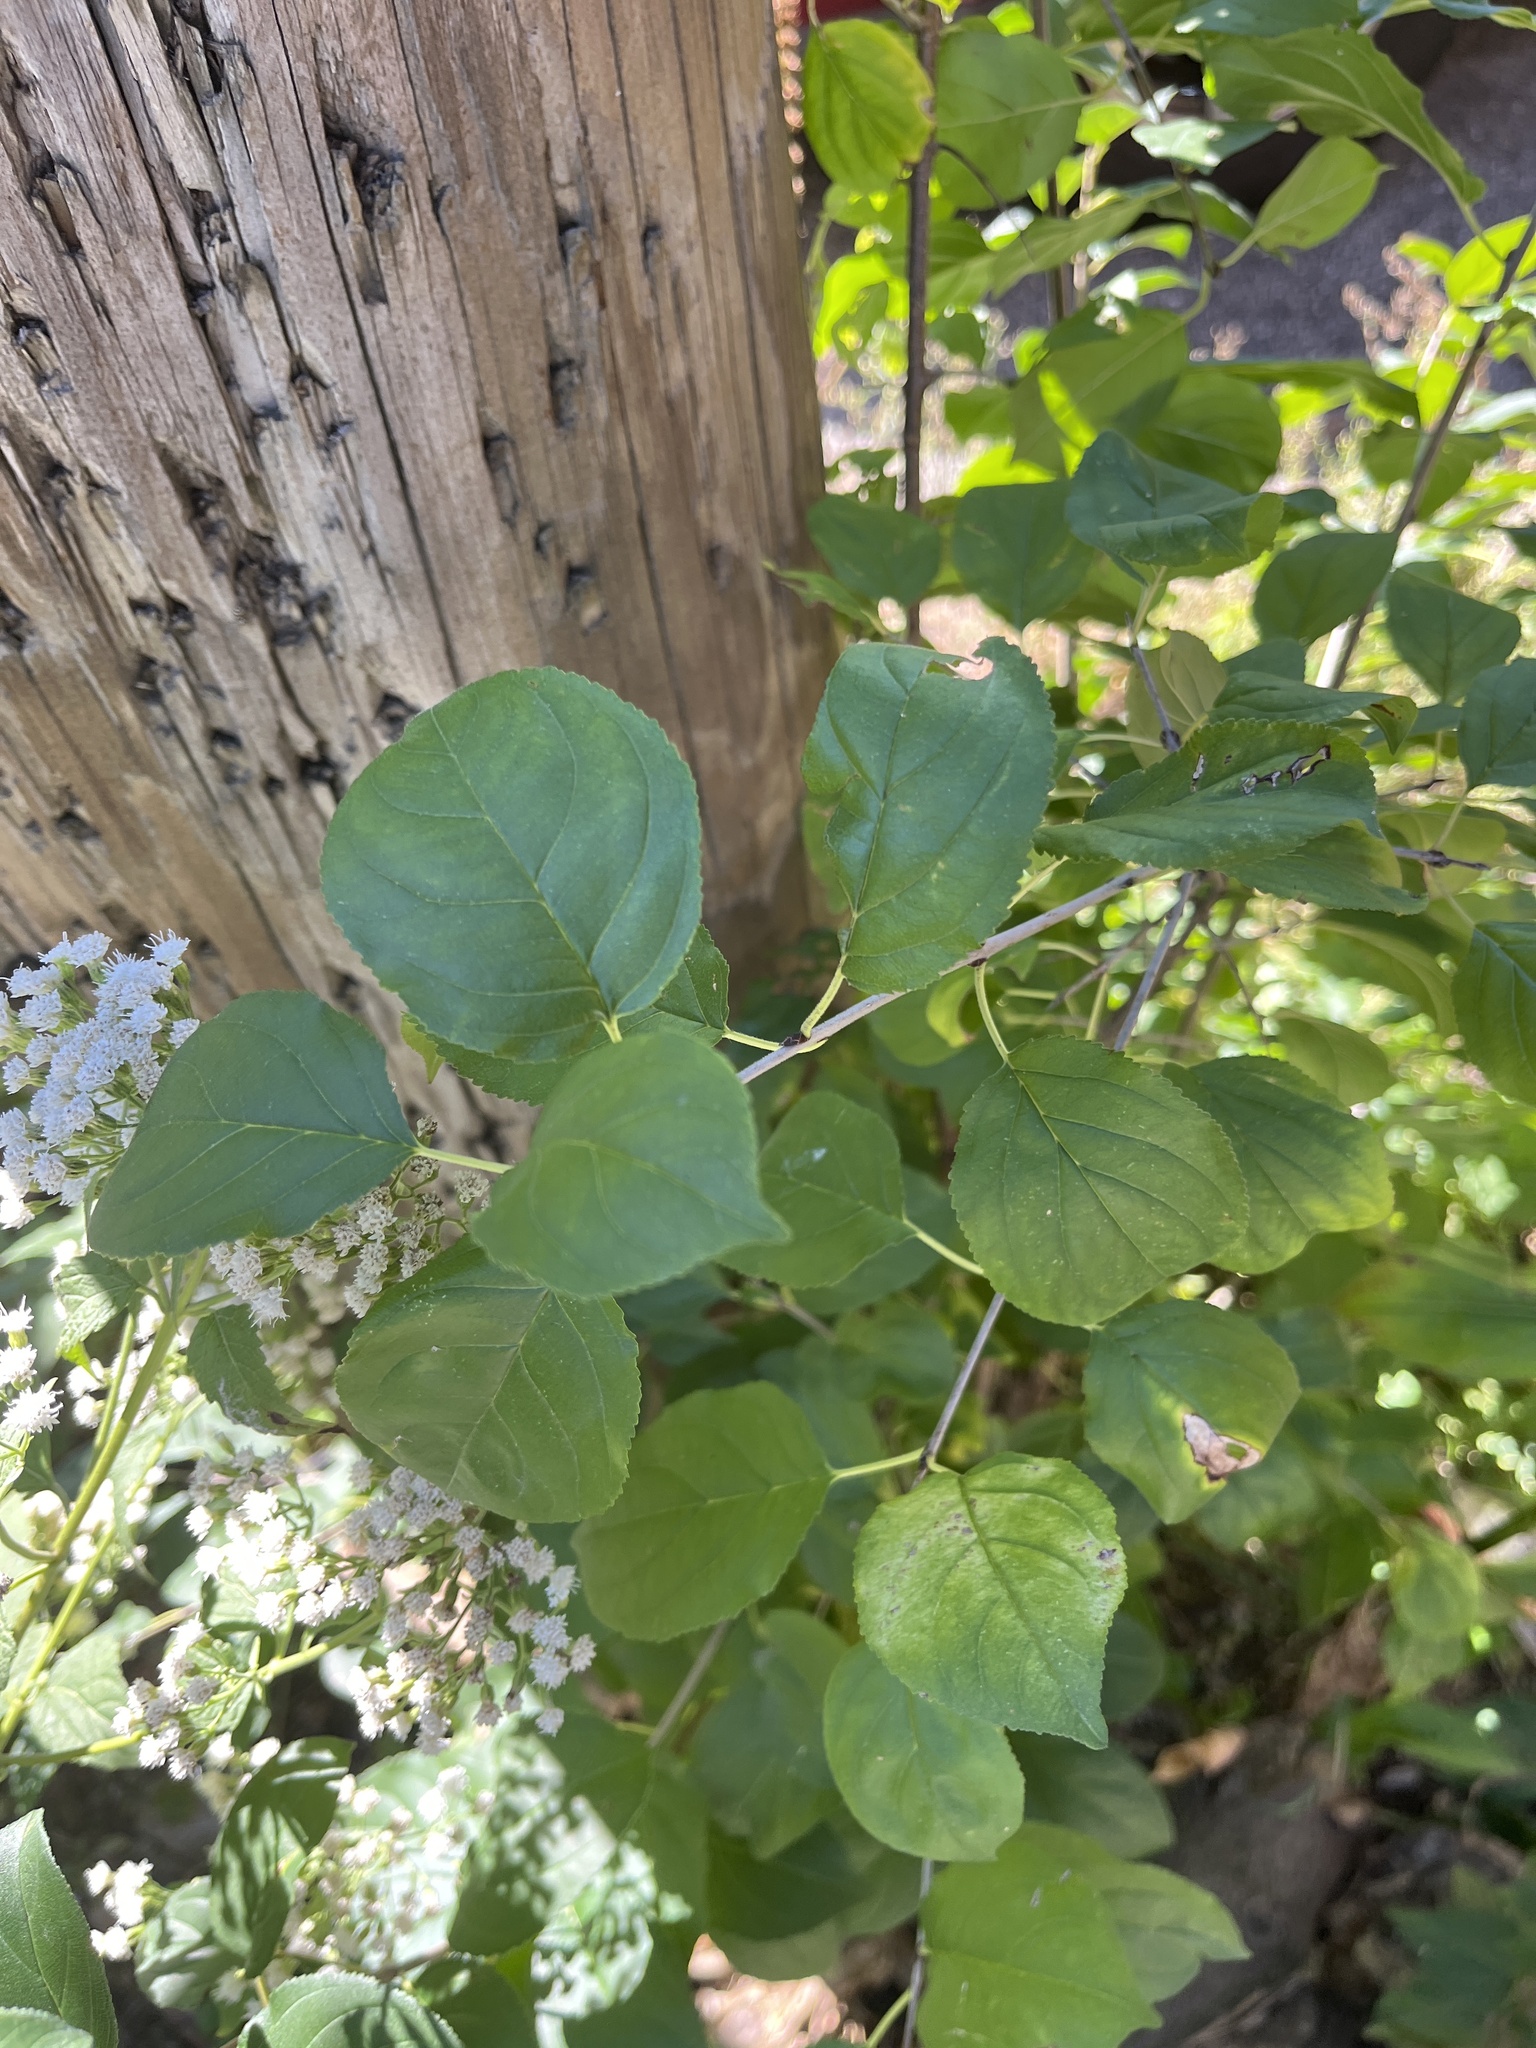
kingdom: Plantae
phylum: Tracheophyta
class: Magnoliopsida
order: Rosales
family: Rhamnaceae
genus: Rhamnus
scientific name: Rhamnus cathartica
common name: Common buckthorn
